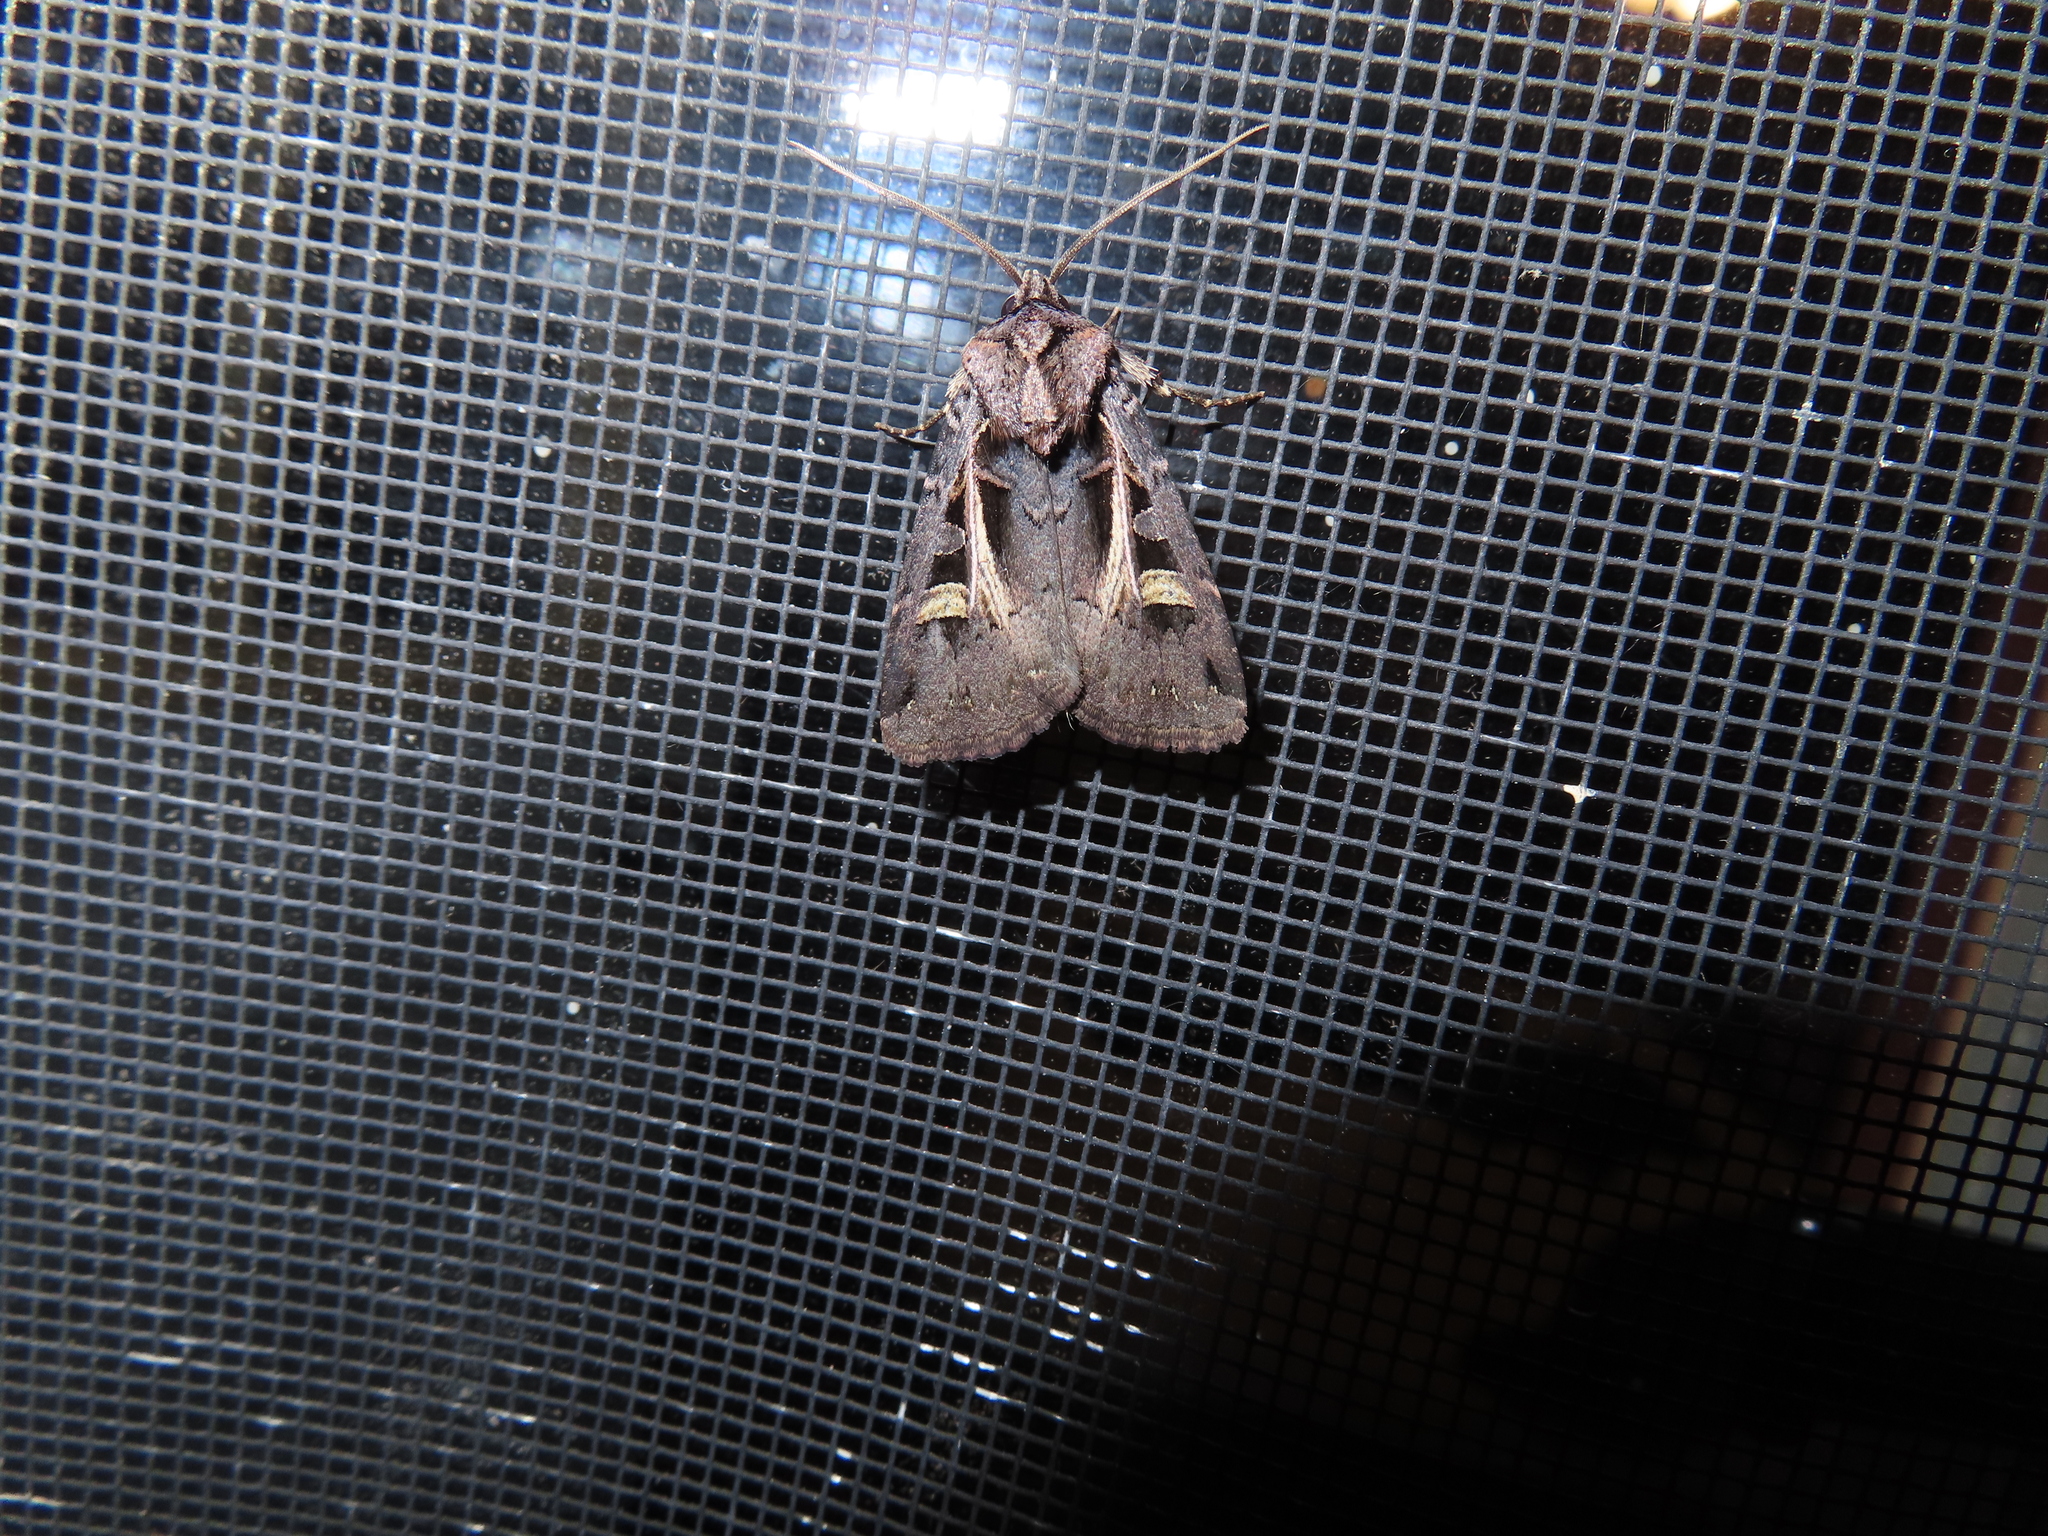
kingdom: Animalia
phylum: Arthropoda
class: Insecta
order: Lepidoptera
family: Noctuidae
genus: Feltia
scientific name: Feltia herilis
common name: Master's dart
